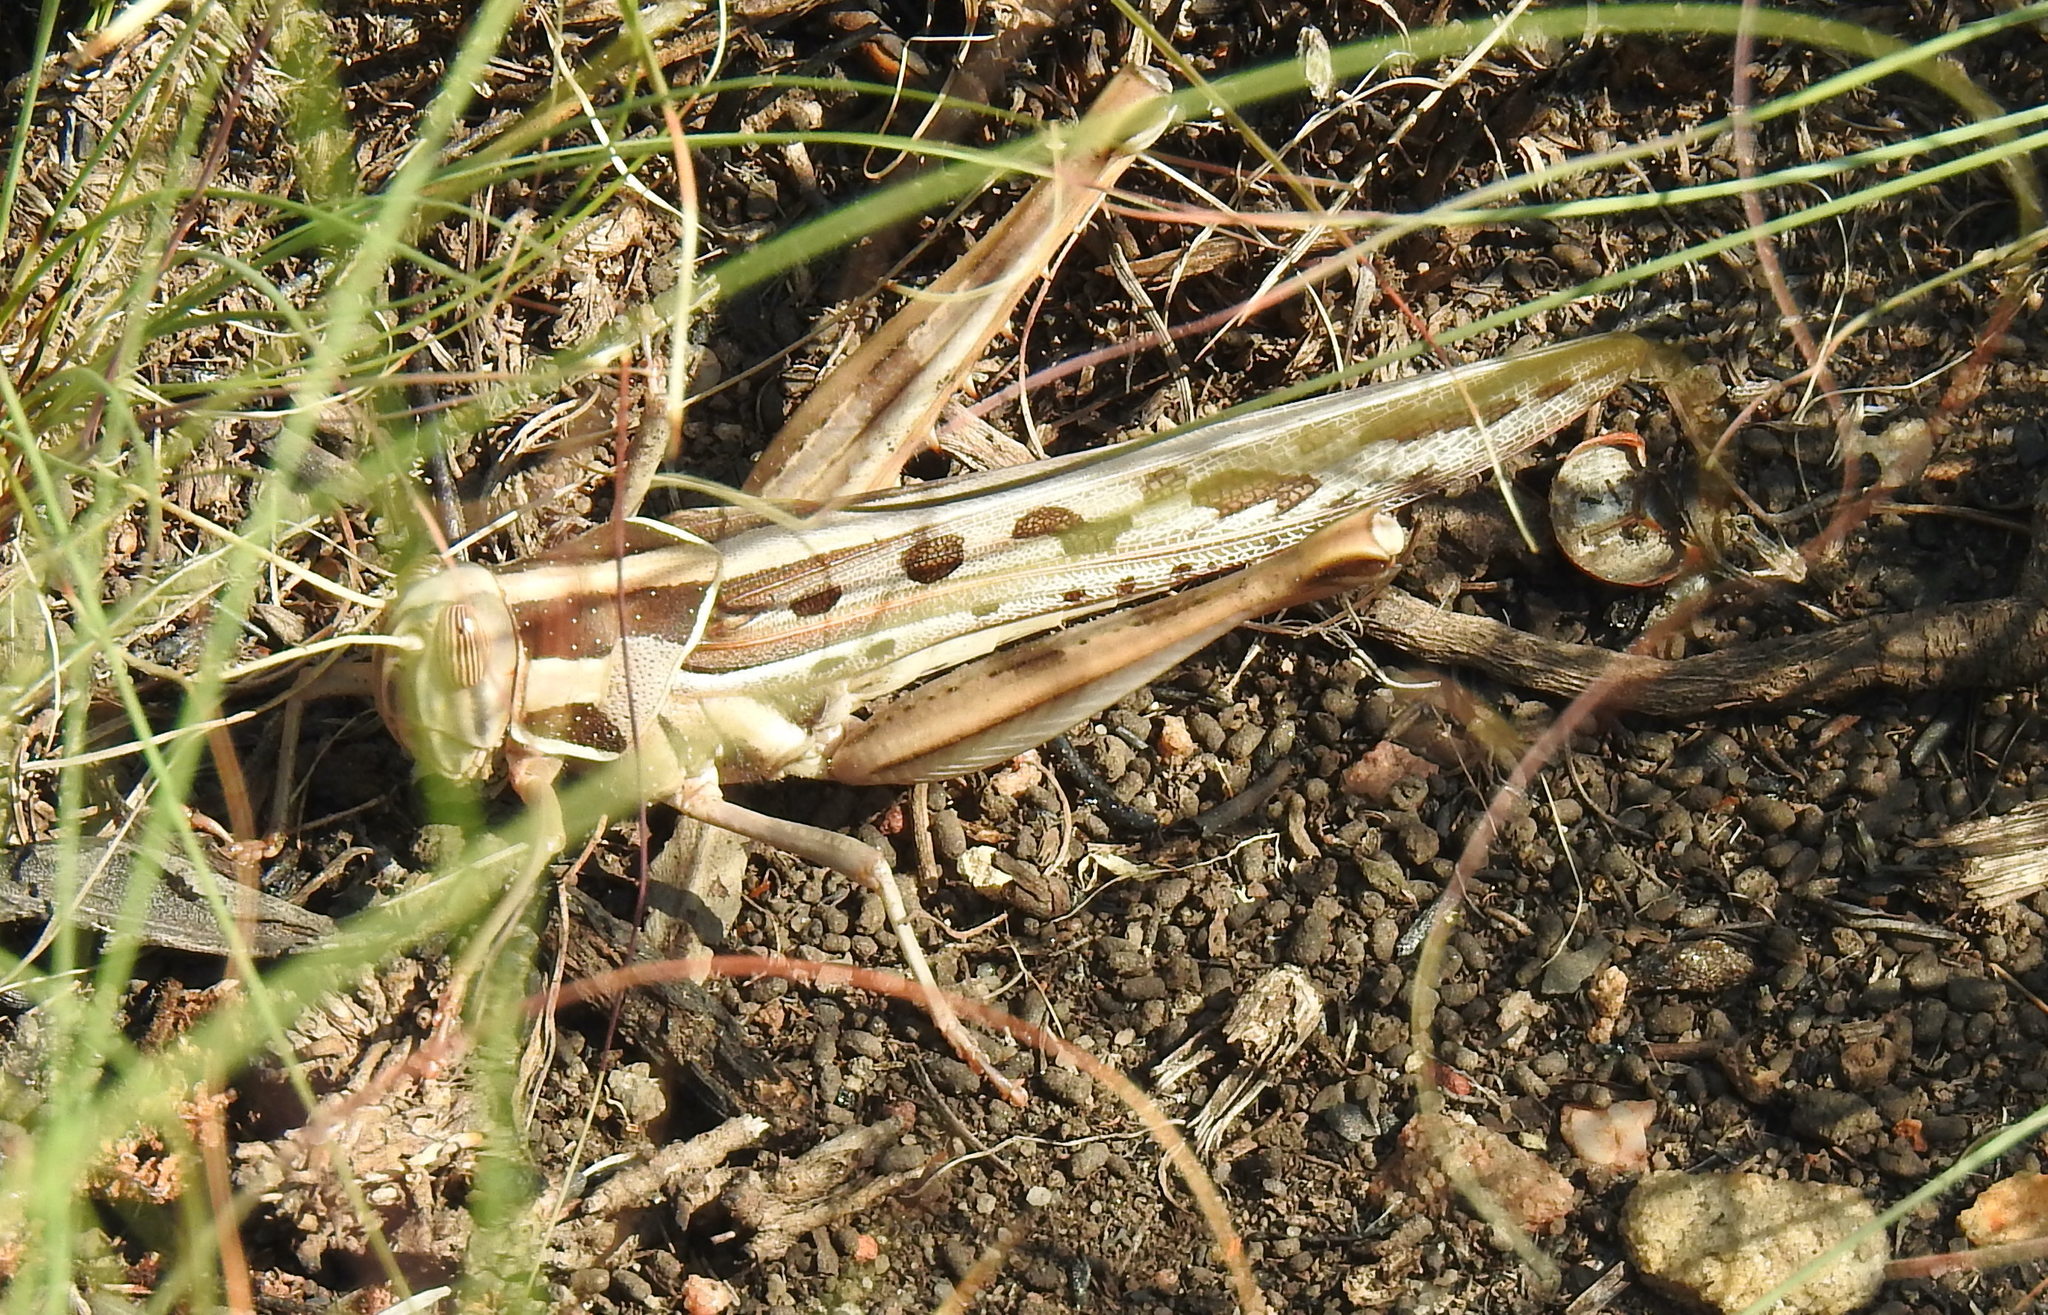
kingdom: Animalia
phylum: Arthropoda
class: Insecta
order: Orthoptera
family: Acrididae
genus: Cyrtacanthacris
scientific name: Cyrtacanthacris tatarica
